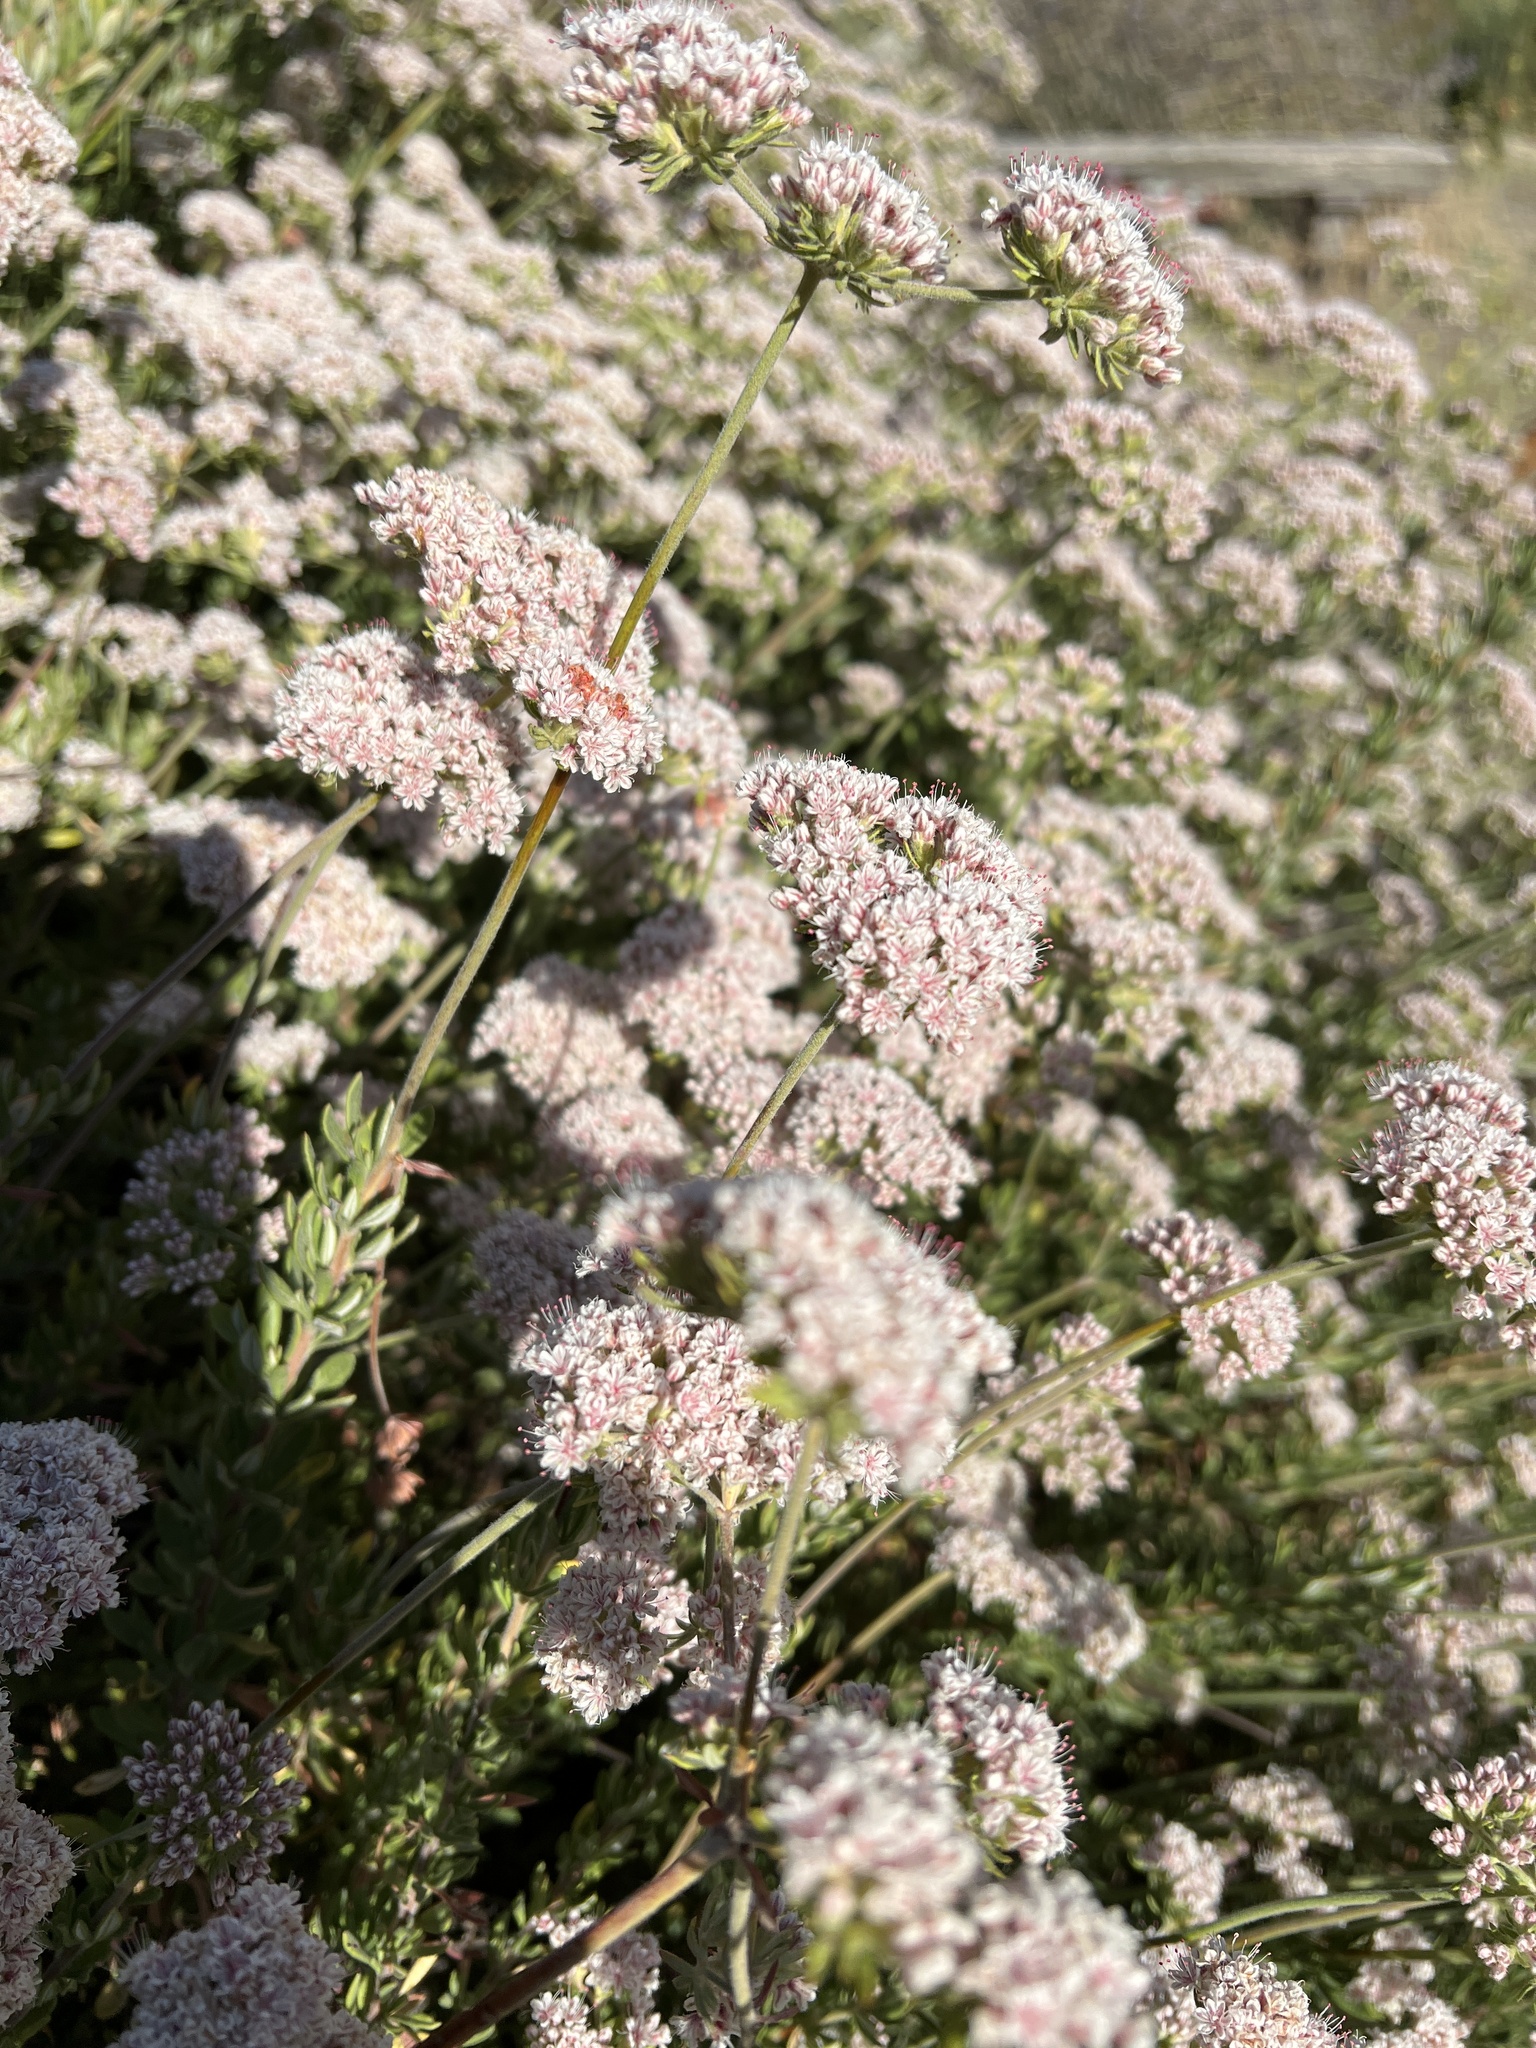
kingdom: Plantae
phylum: Tracheophyta
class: Magnoliopsida
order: Caryophyllales
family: Polygonaceae
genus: Eriogonum
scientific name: Eriogonum fasciculatum
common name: California wild buckwheat
